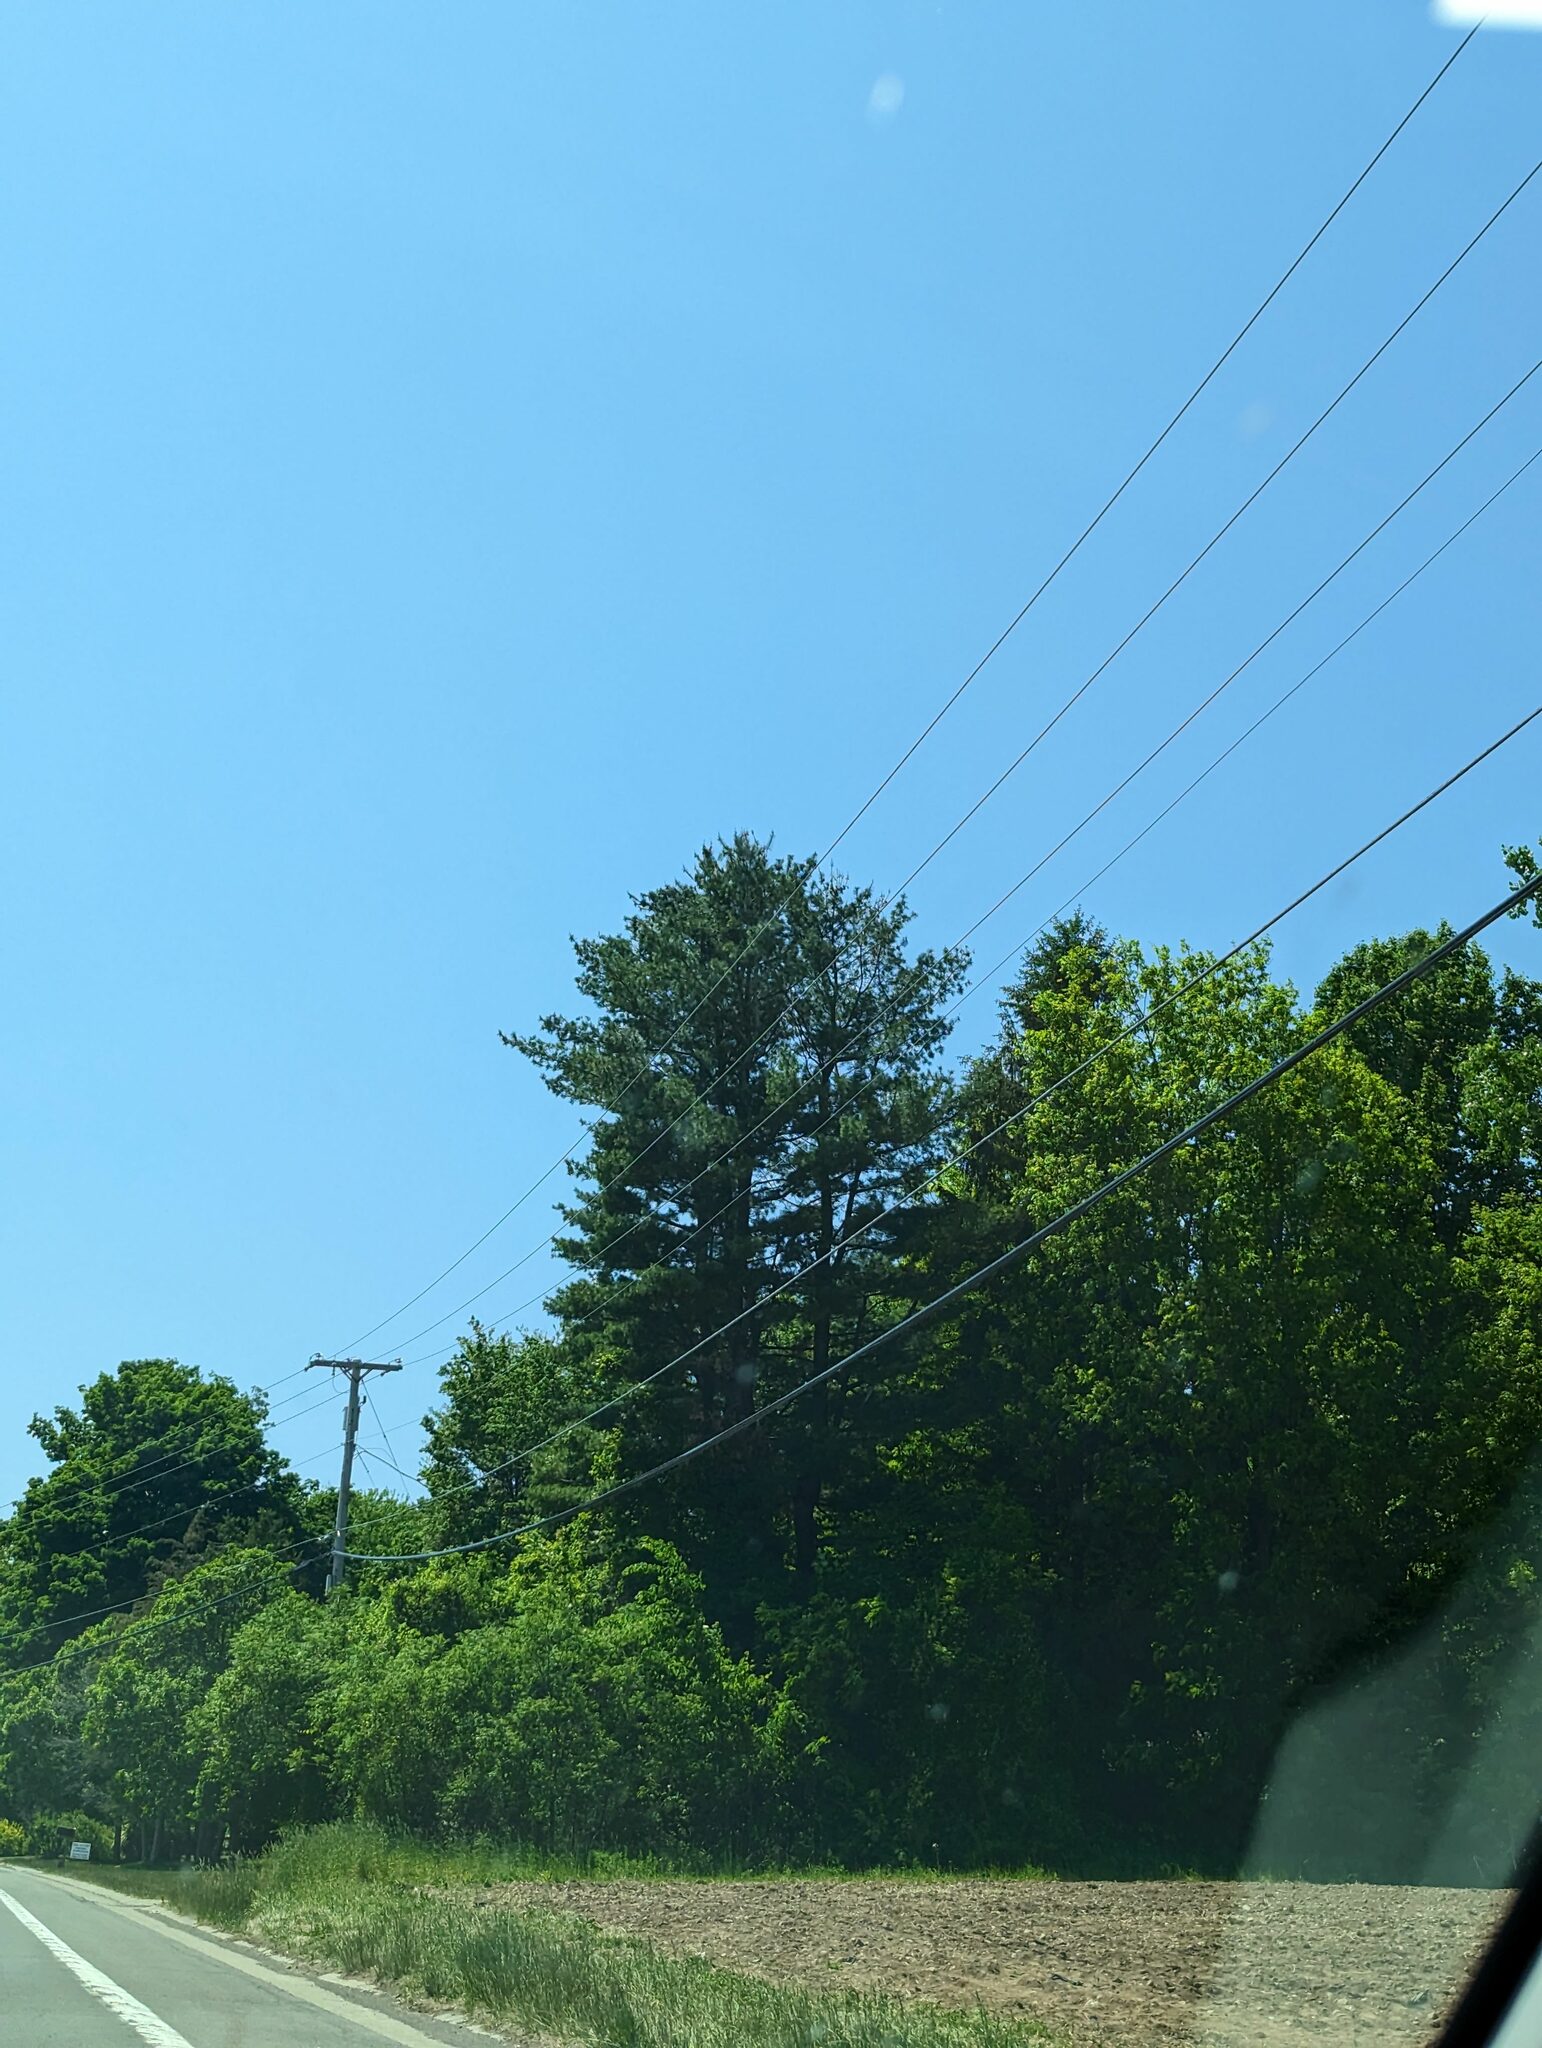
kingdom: Plantae
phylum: Tracheophyta
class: Pinopsida
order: Pinales
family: Pinaceae
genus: Pinus
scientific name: Pinus strobus
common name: Weymouth pine
